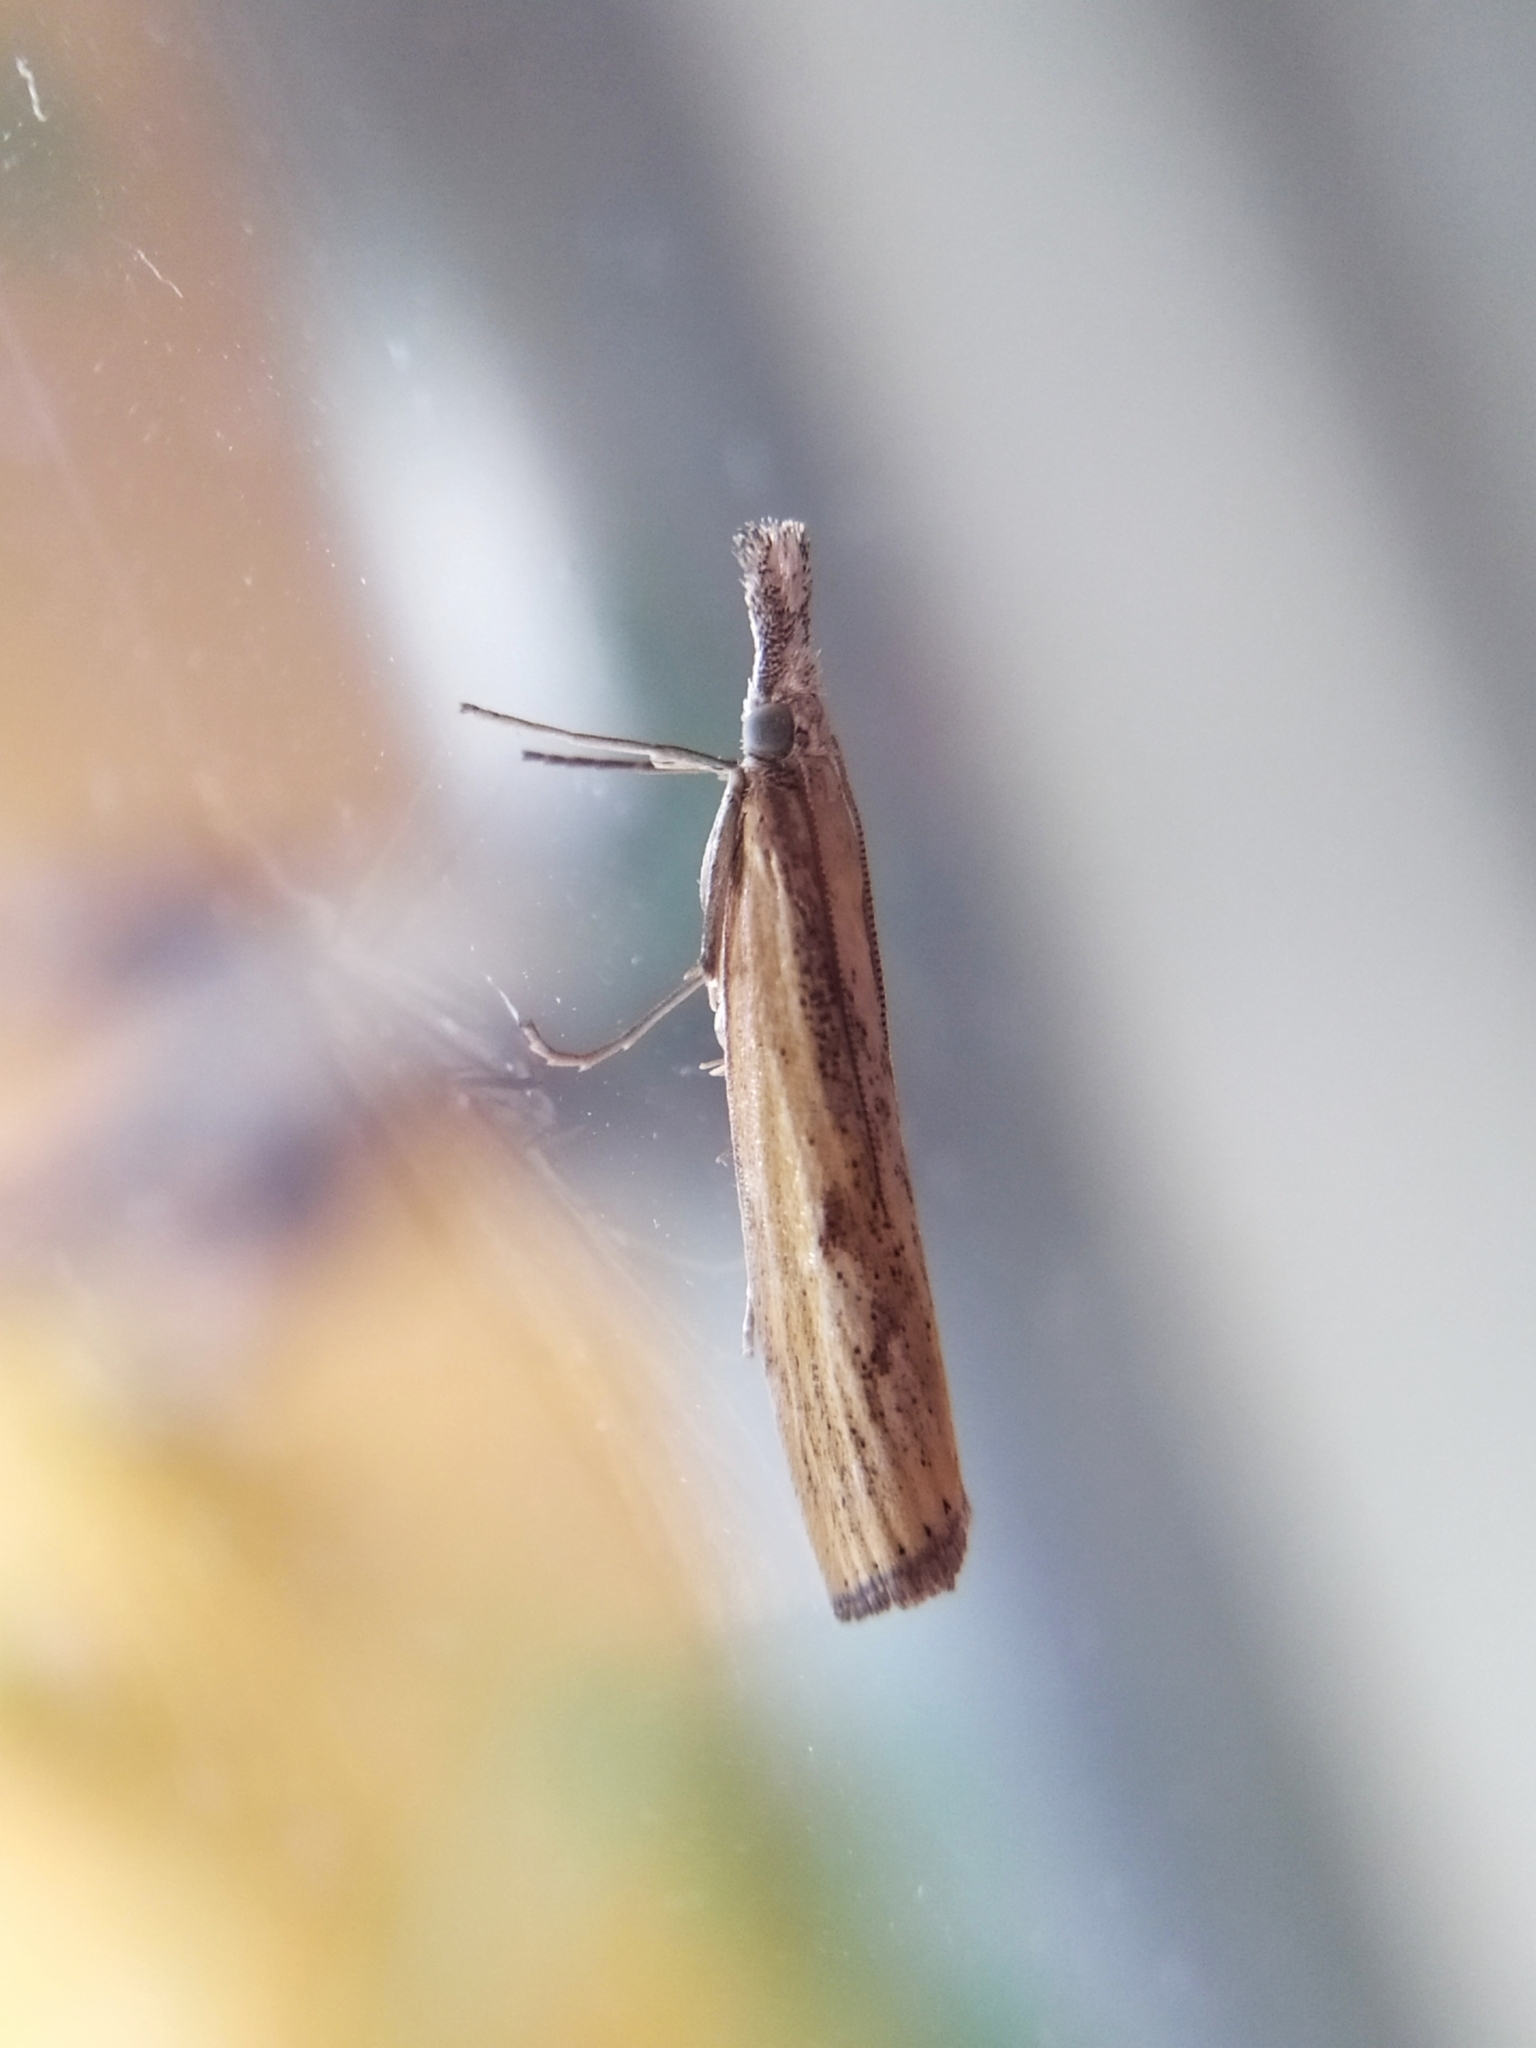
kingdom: Animalia
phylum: Arthropoda
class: Insecta
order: Lepidoptera
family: Crambidae
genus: Agriphila
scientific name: Agriphila inquinatella
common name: Barred grass-veneer
